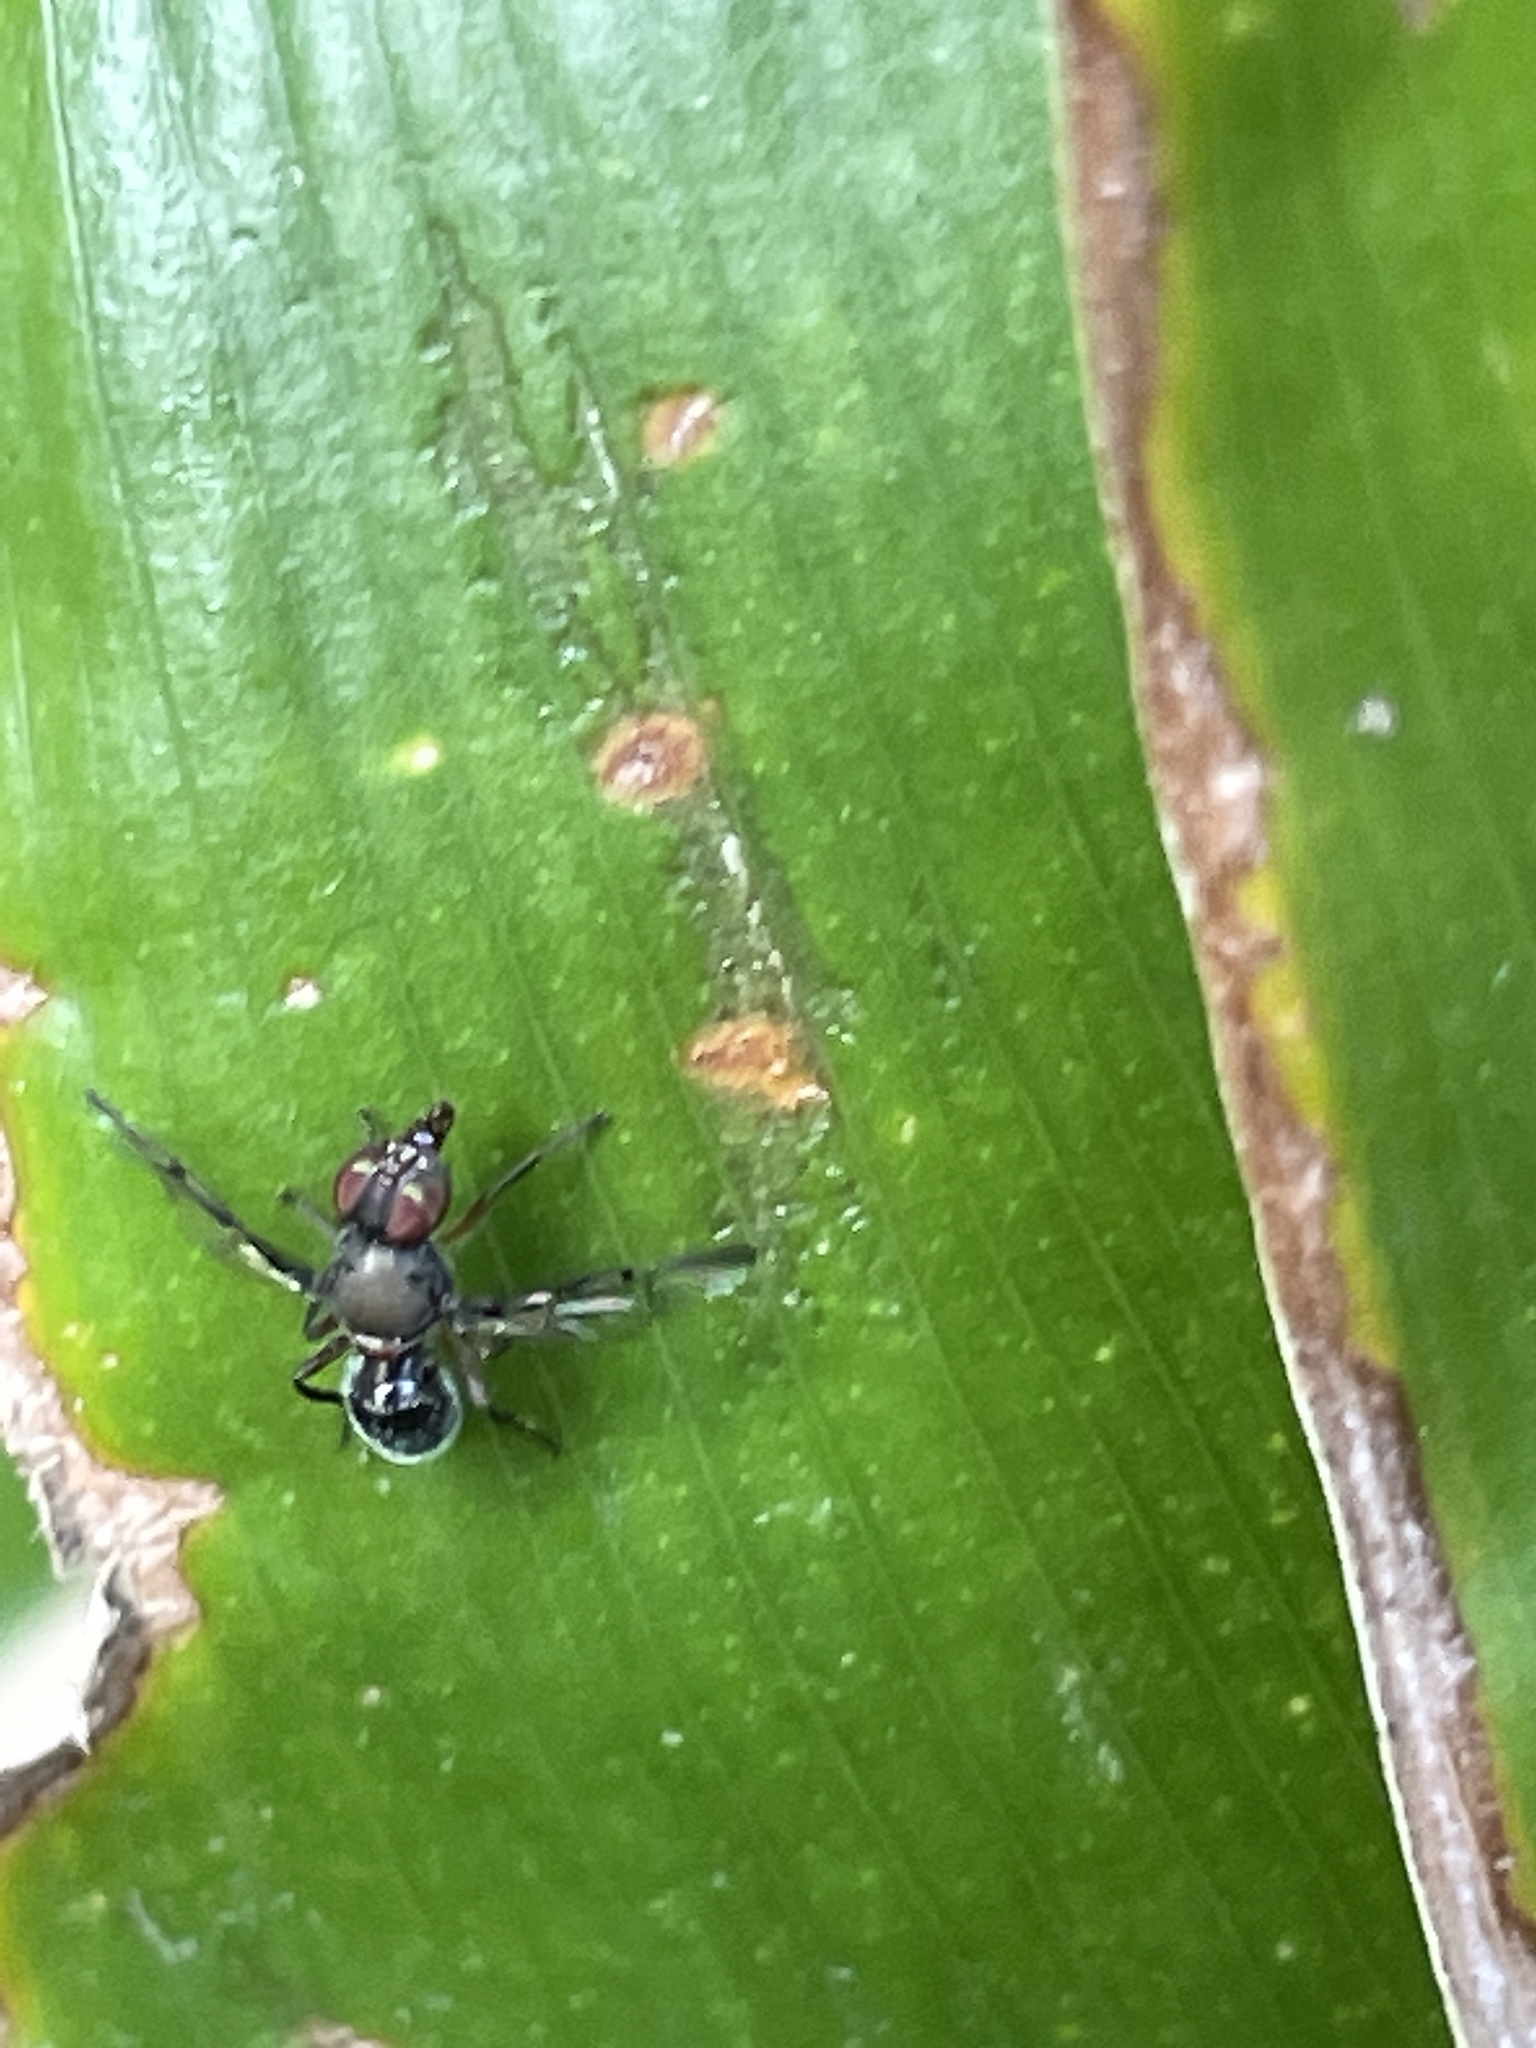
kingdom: Animalia
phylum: Arthropoda
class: Insecta
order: Diptera
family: Platystomatidae
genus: Pogonortalis
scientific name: Pogonortalis doclea
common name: Boatman fly
